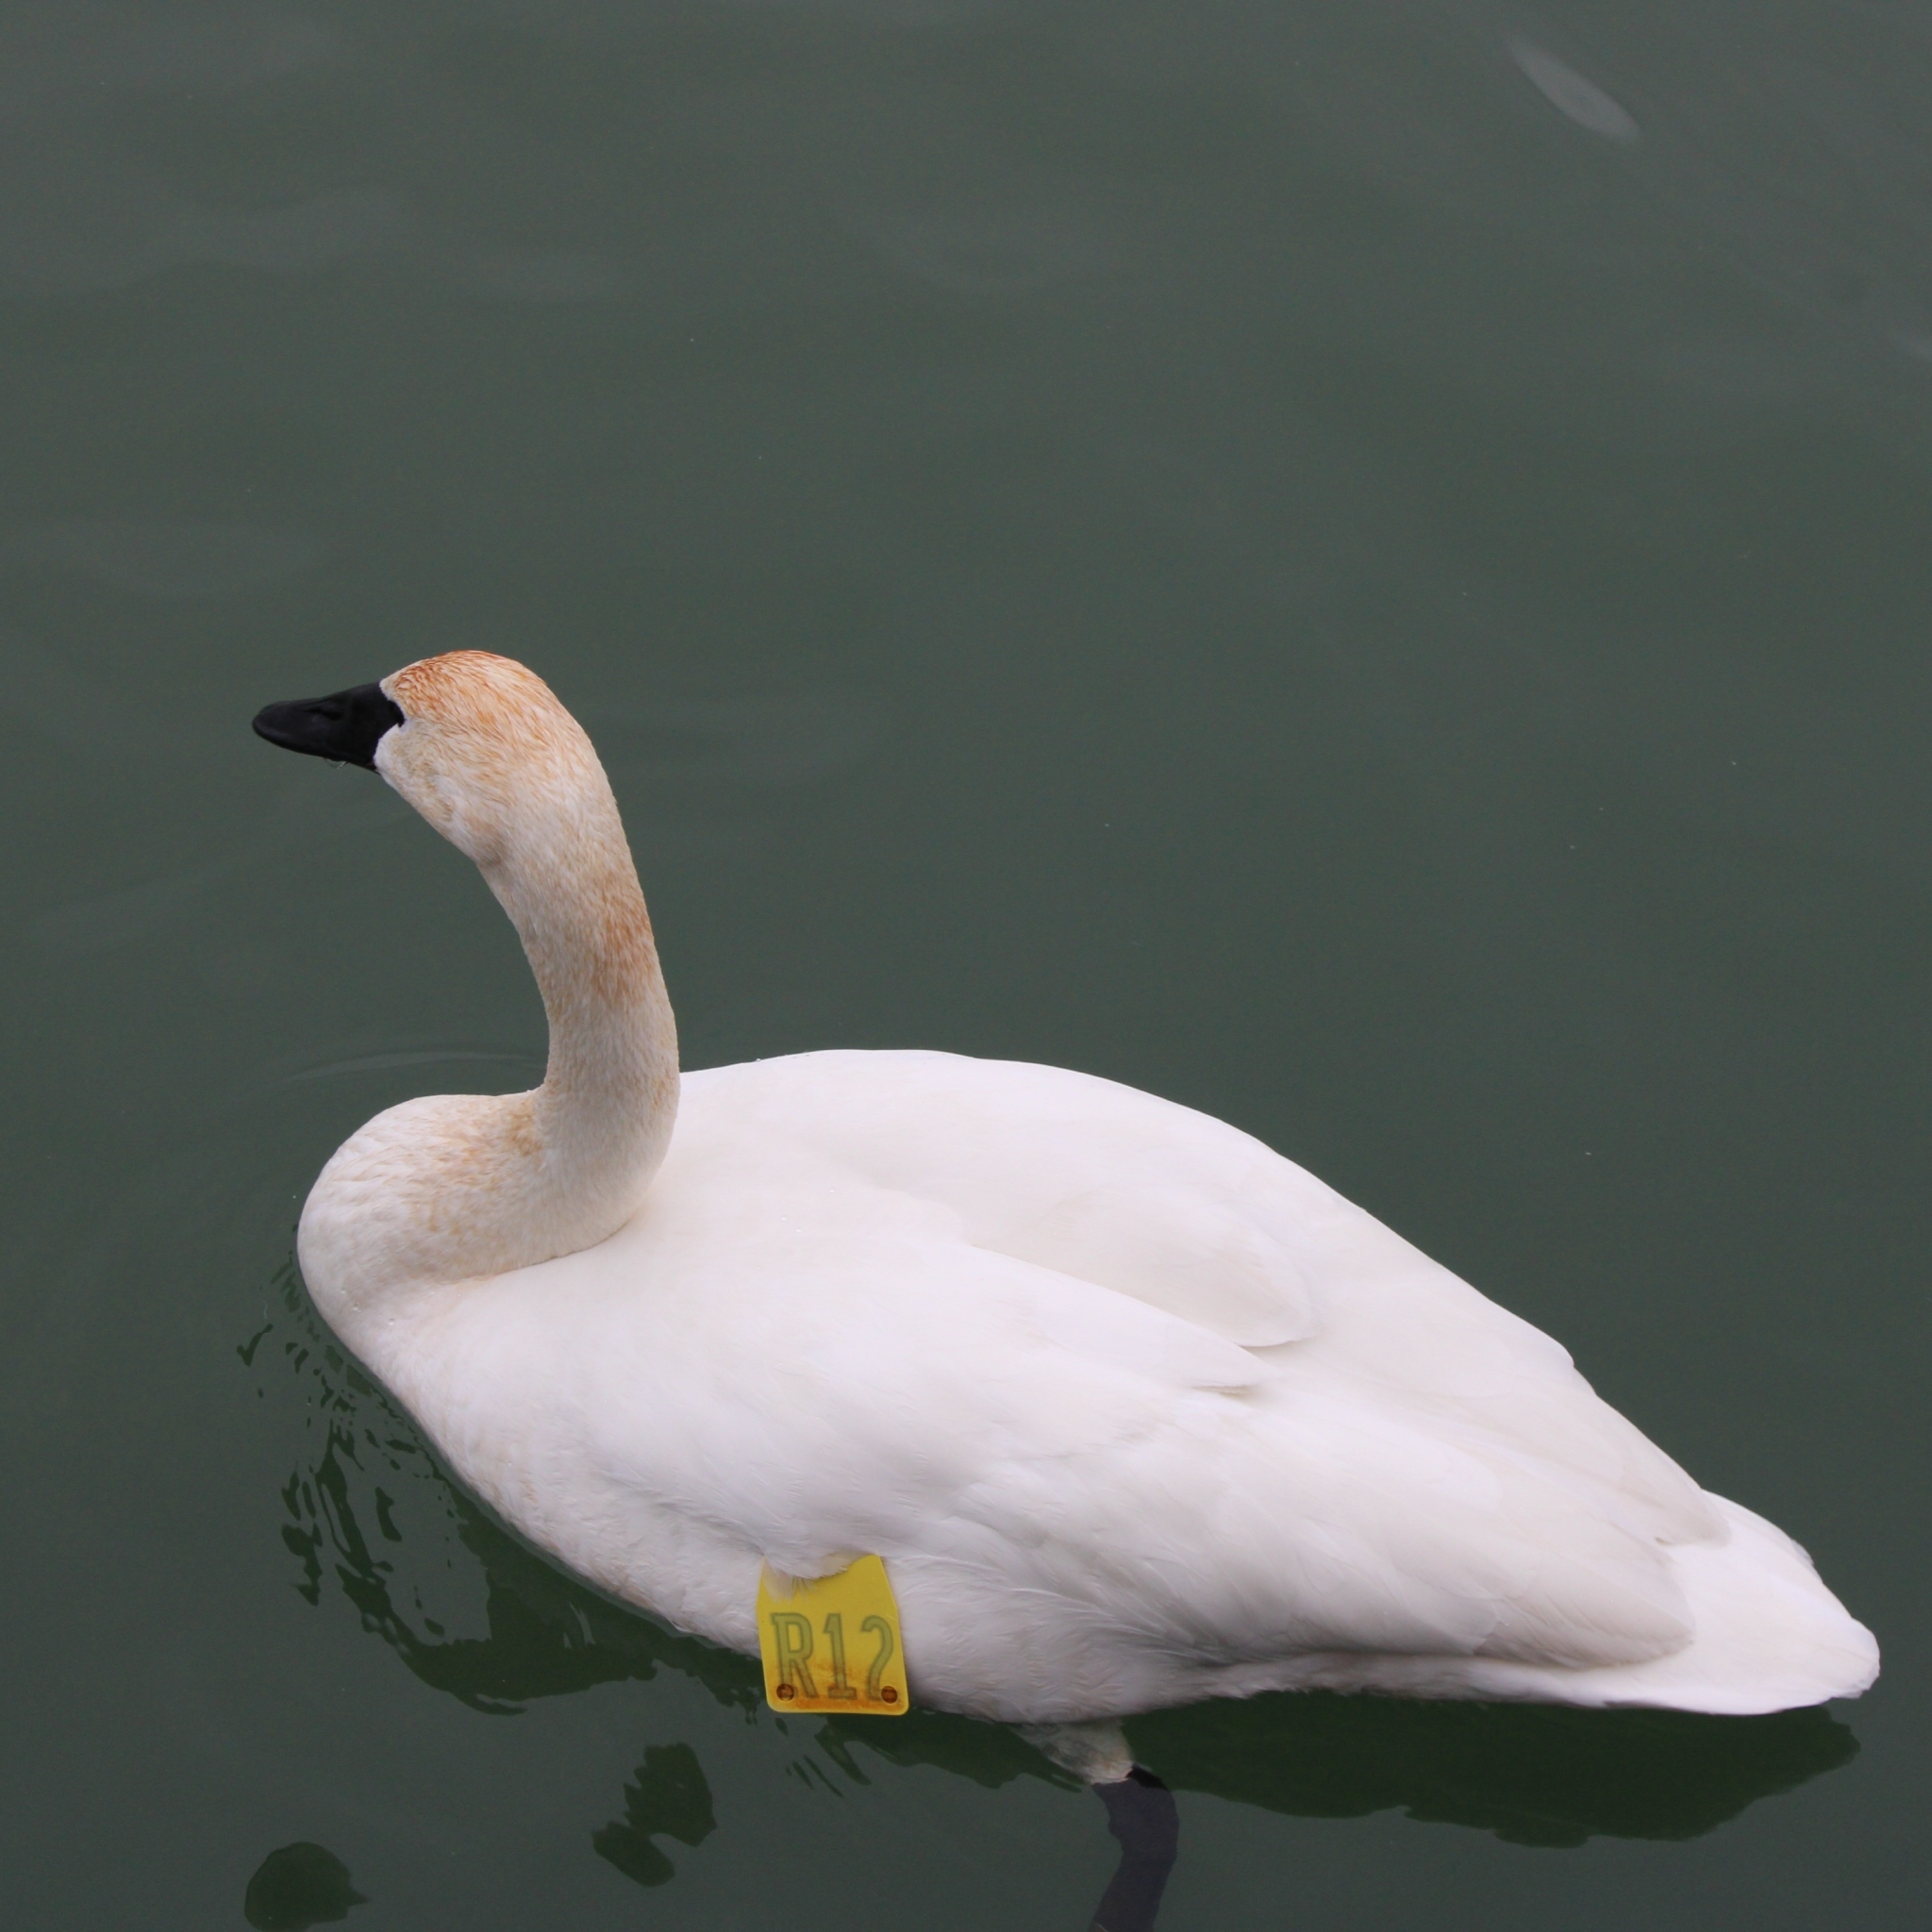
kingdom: Animalia
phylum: Chordata
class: Aves
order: Anseriformes
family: Anatidae
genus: Cygnus
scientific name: Cygnus buccinator
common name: Trumpeter swan
